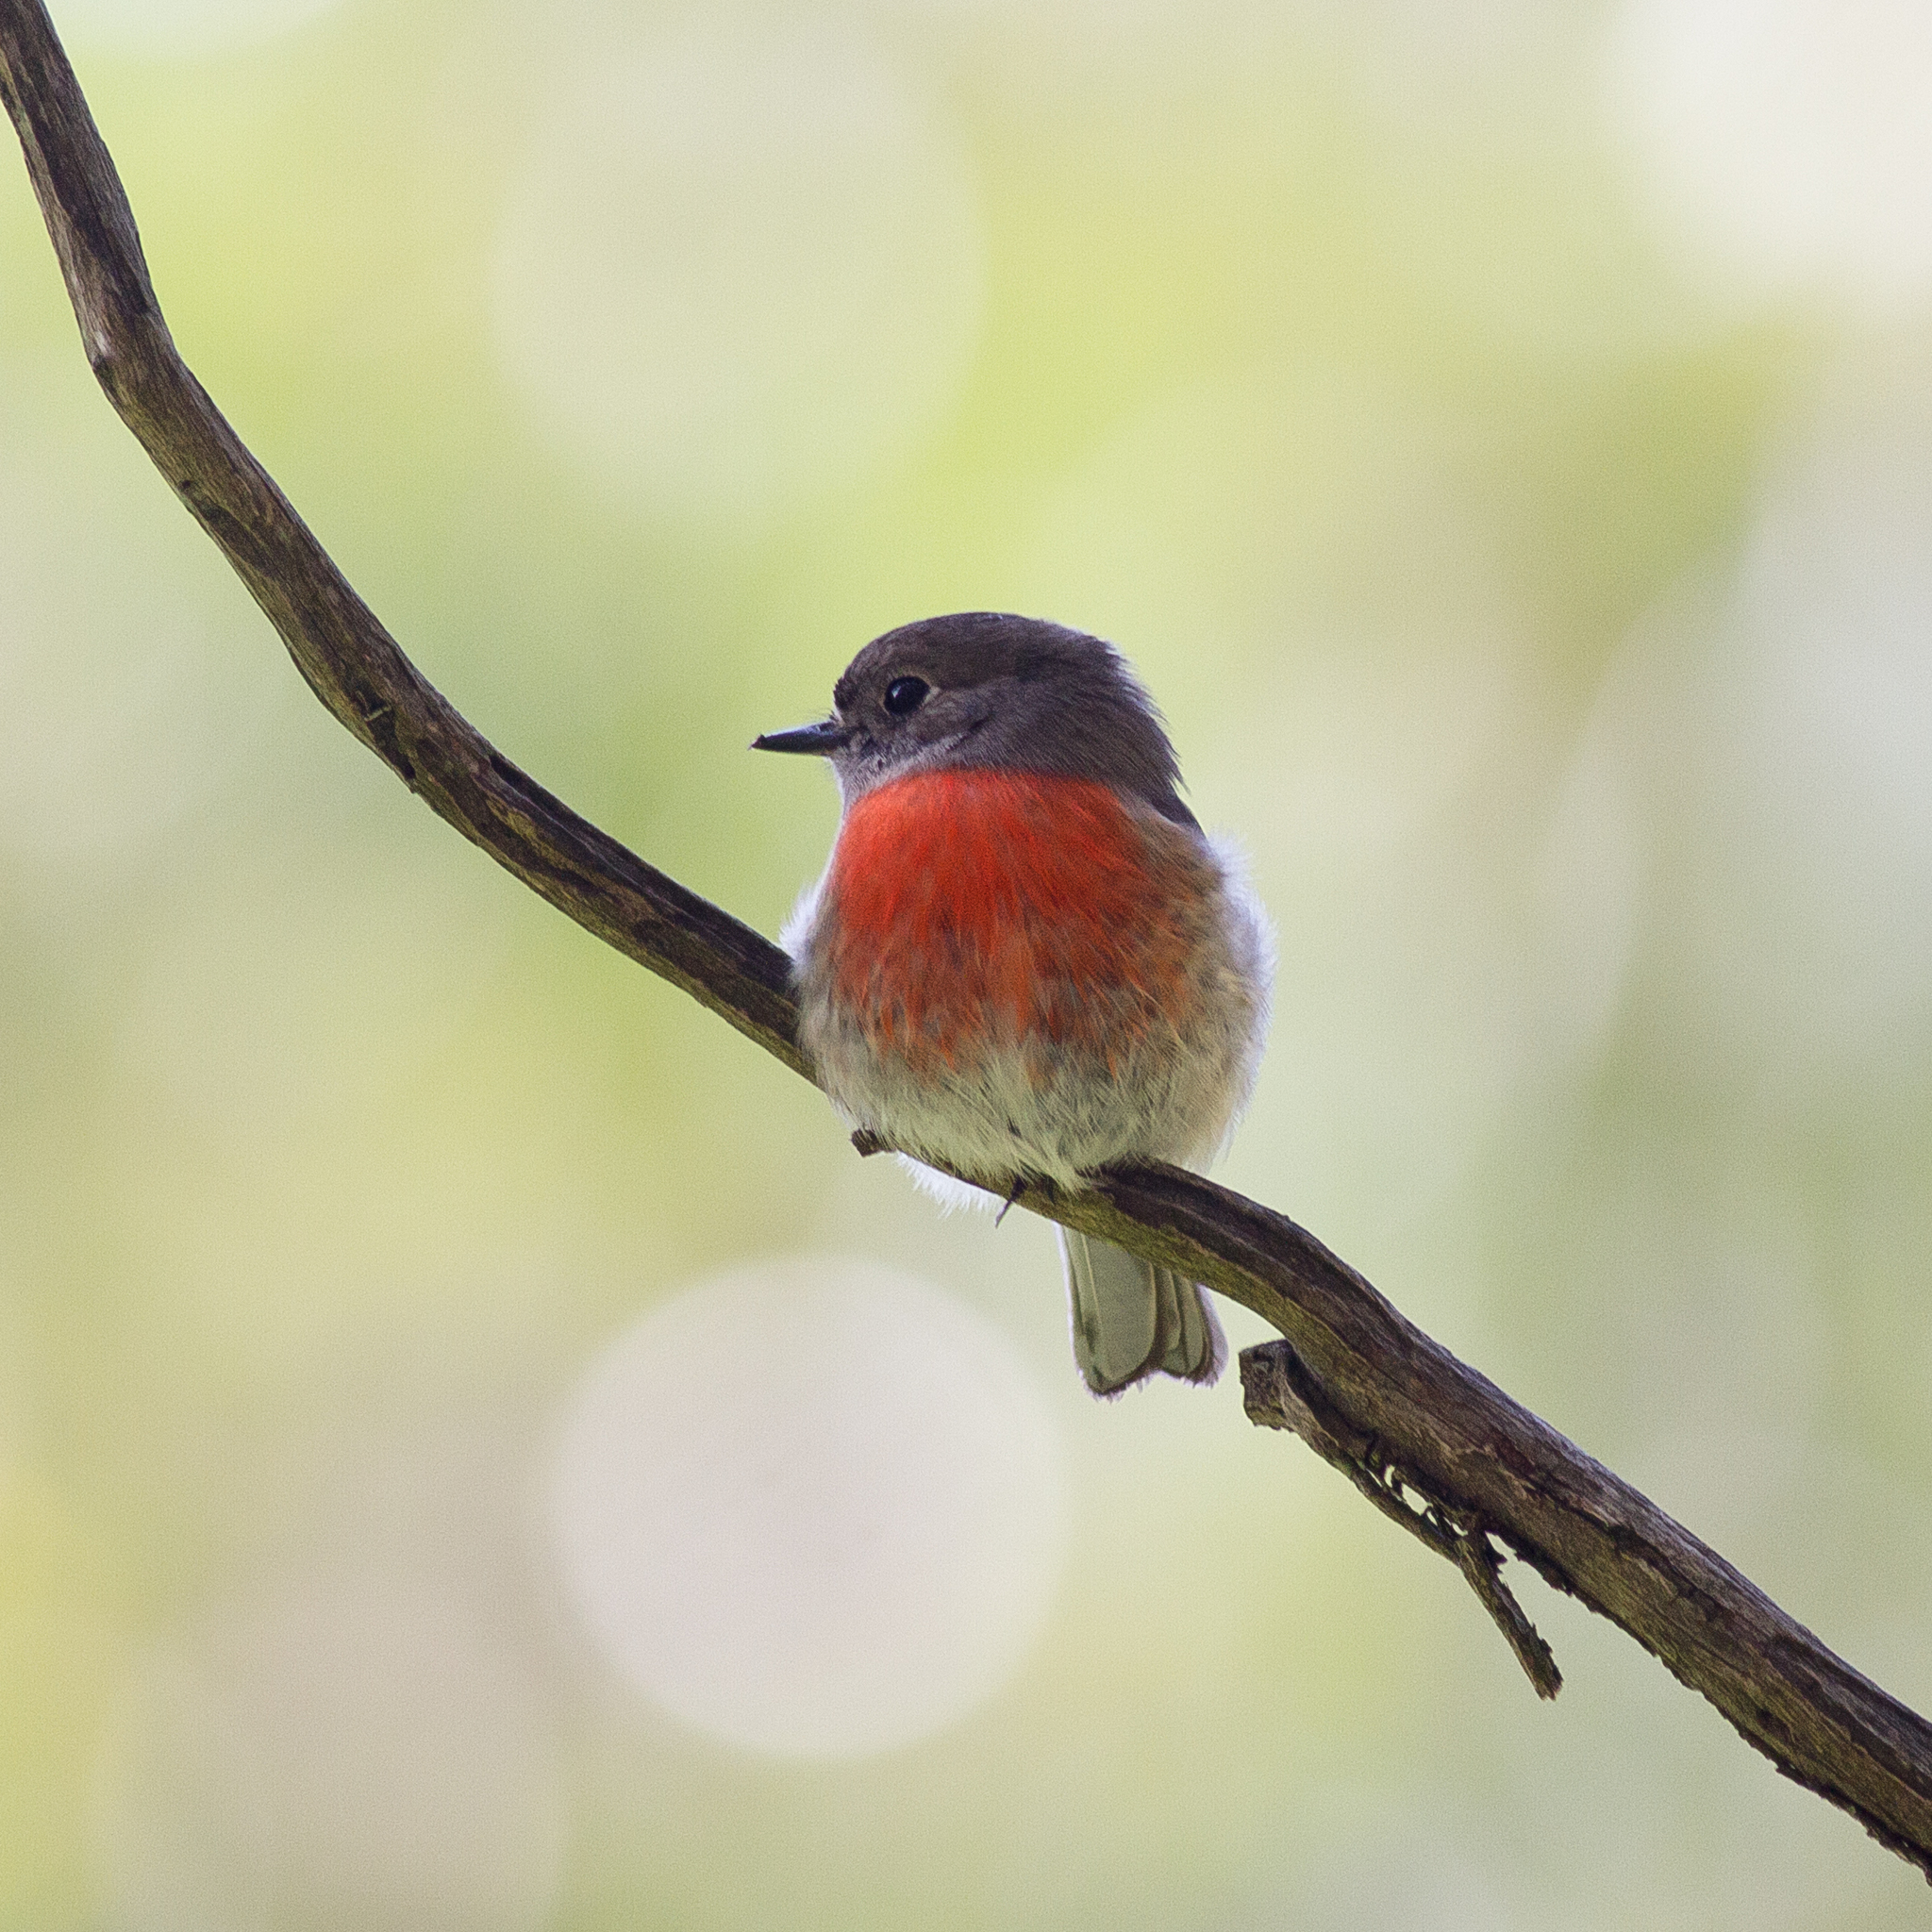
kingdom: Animalia
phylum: Chordata
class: Aves
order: Passeriformes
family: Petroicidae
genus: Petroica
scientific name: Petroica boodang
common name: Scarlet robin
